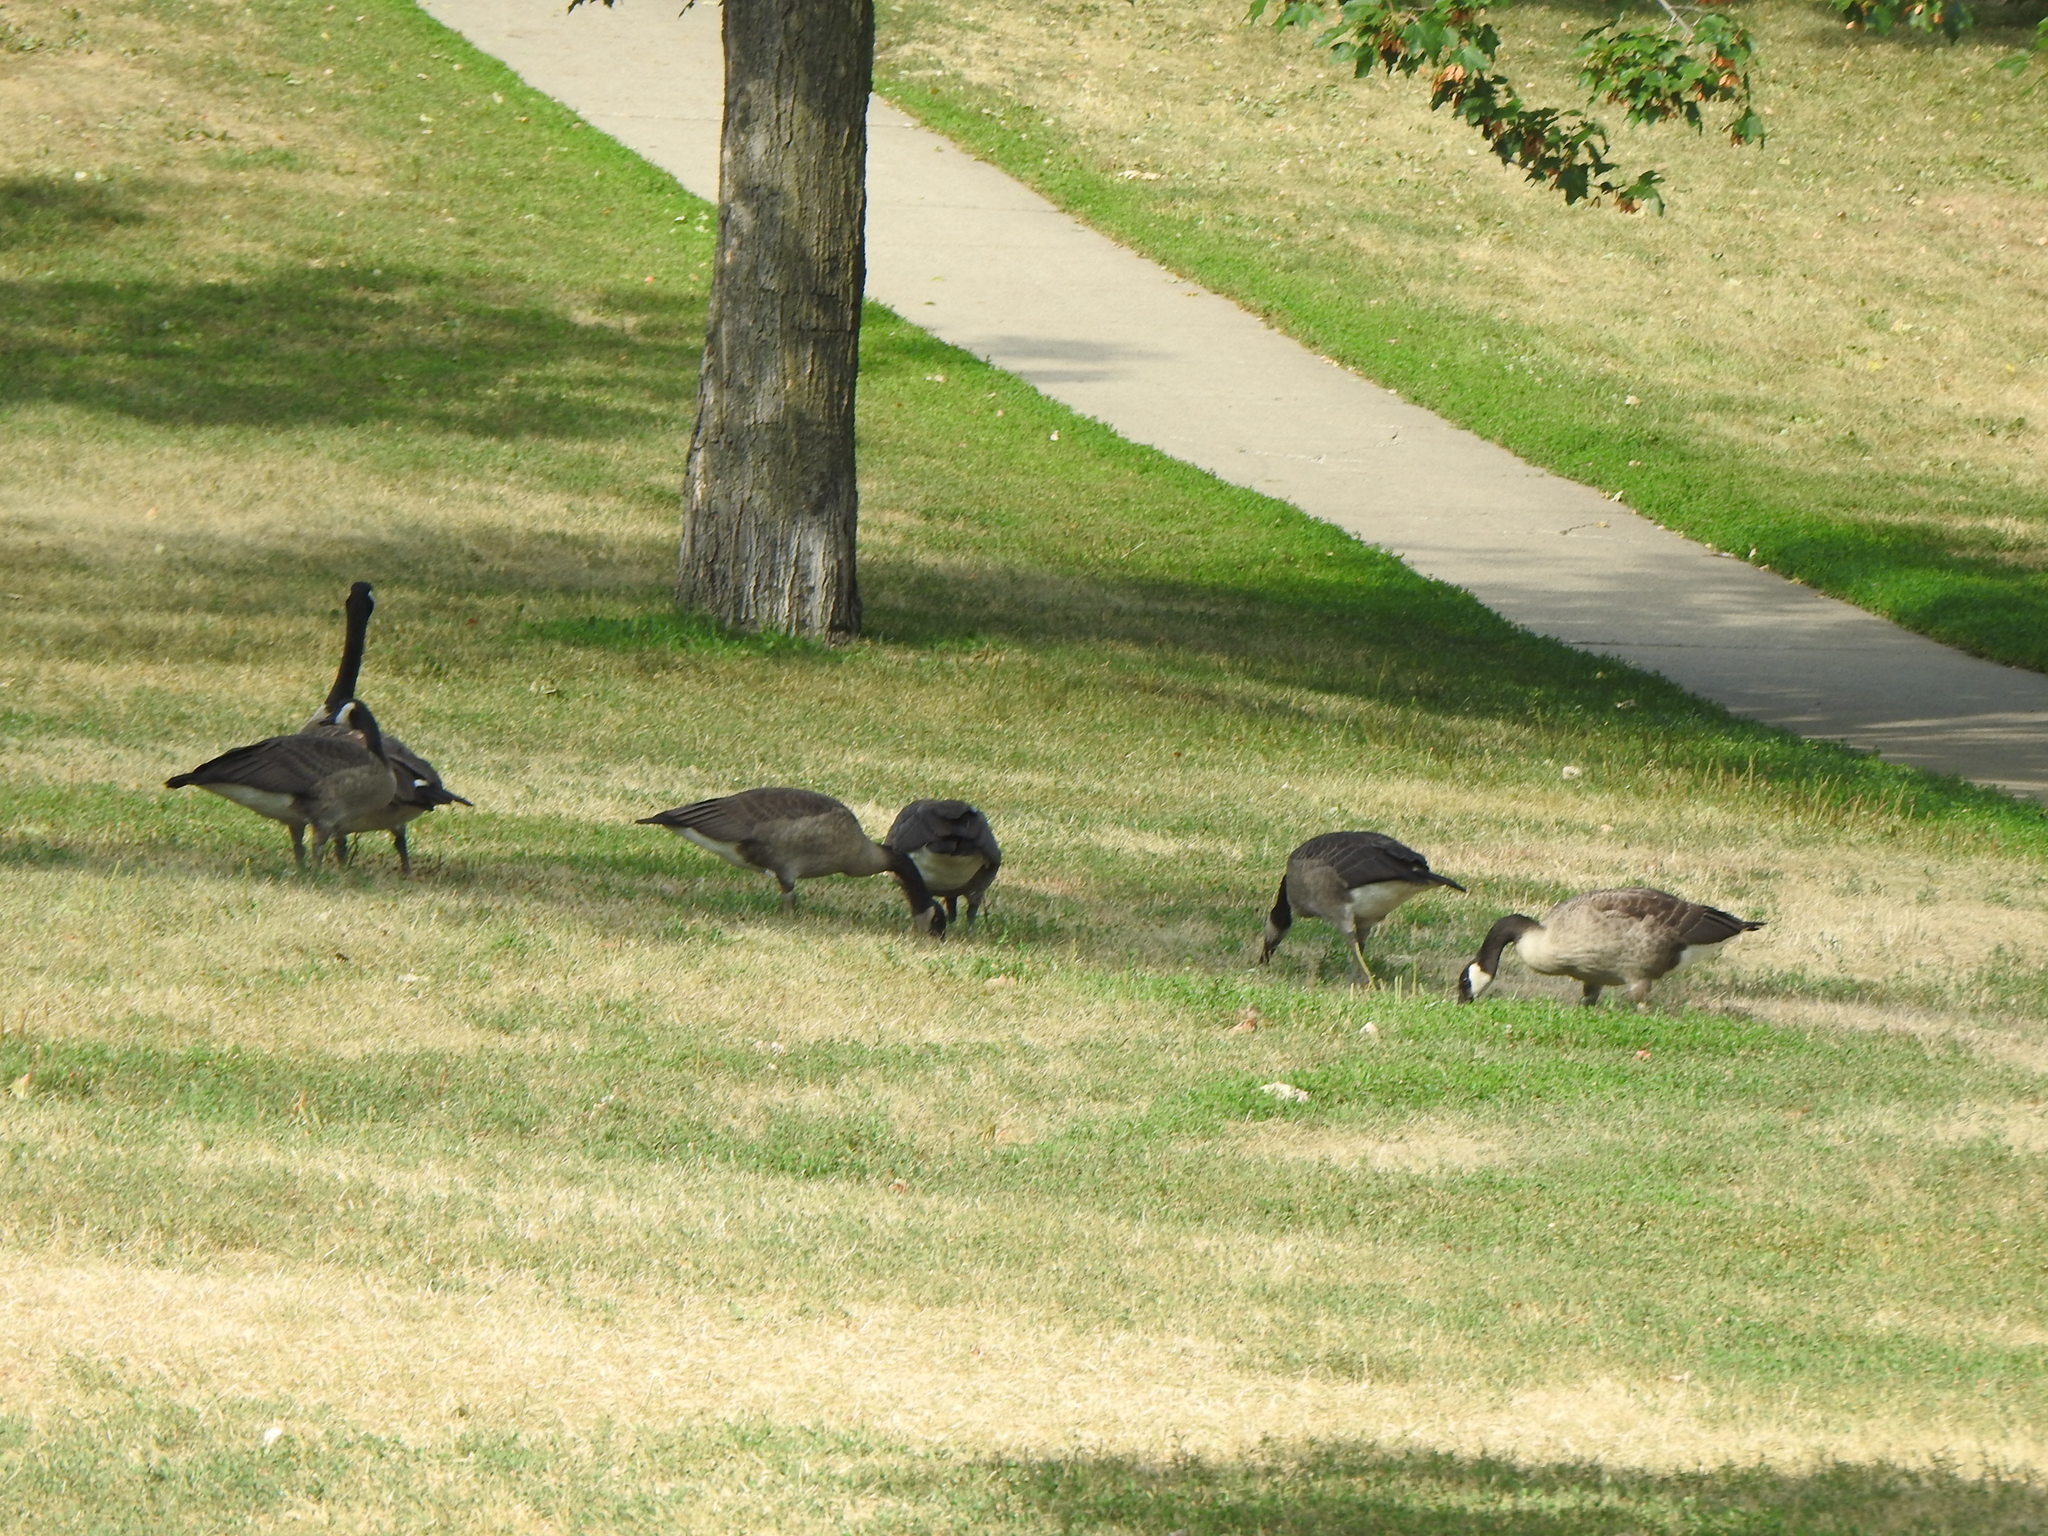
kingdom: Animalia
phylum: Chordata
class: Aves
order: Anseriformes
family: Anatidae
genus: Branta
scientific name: Branta canadensis
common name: Canada goose
